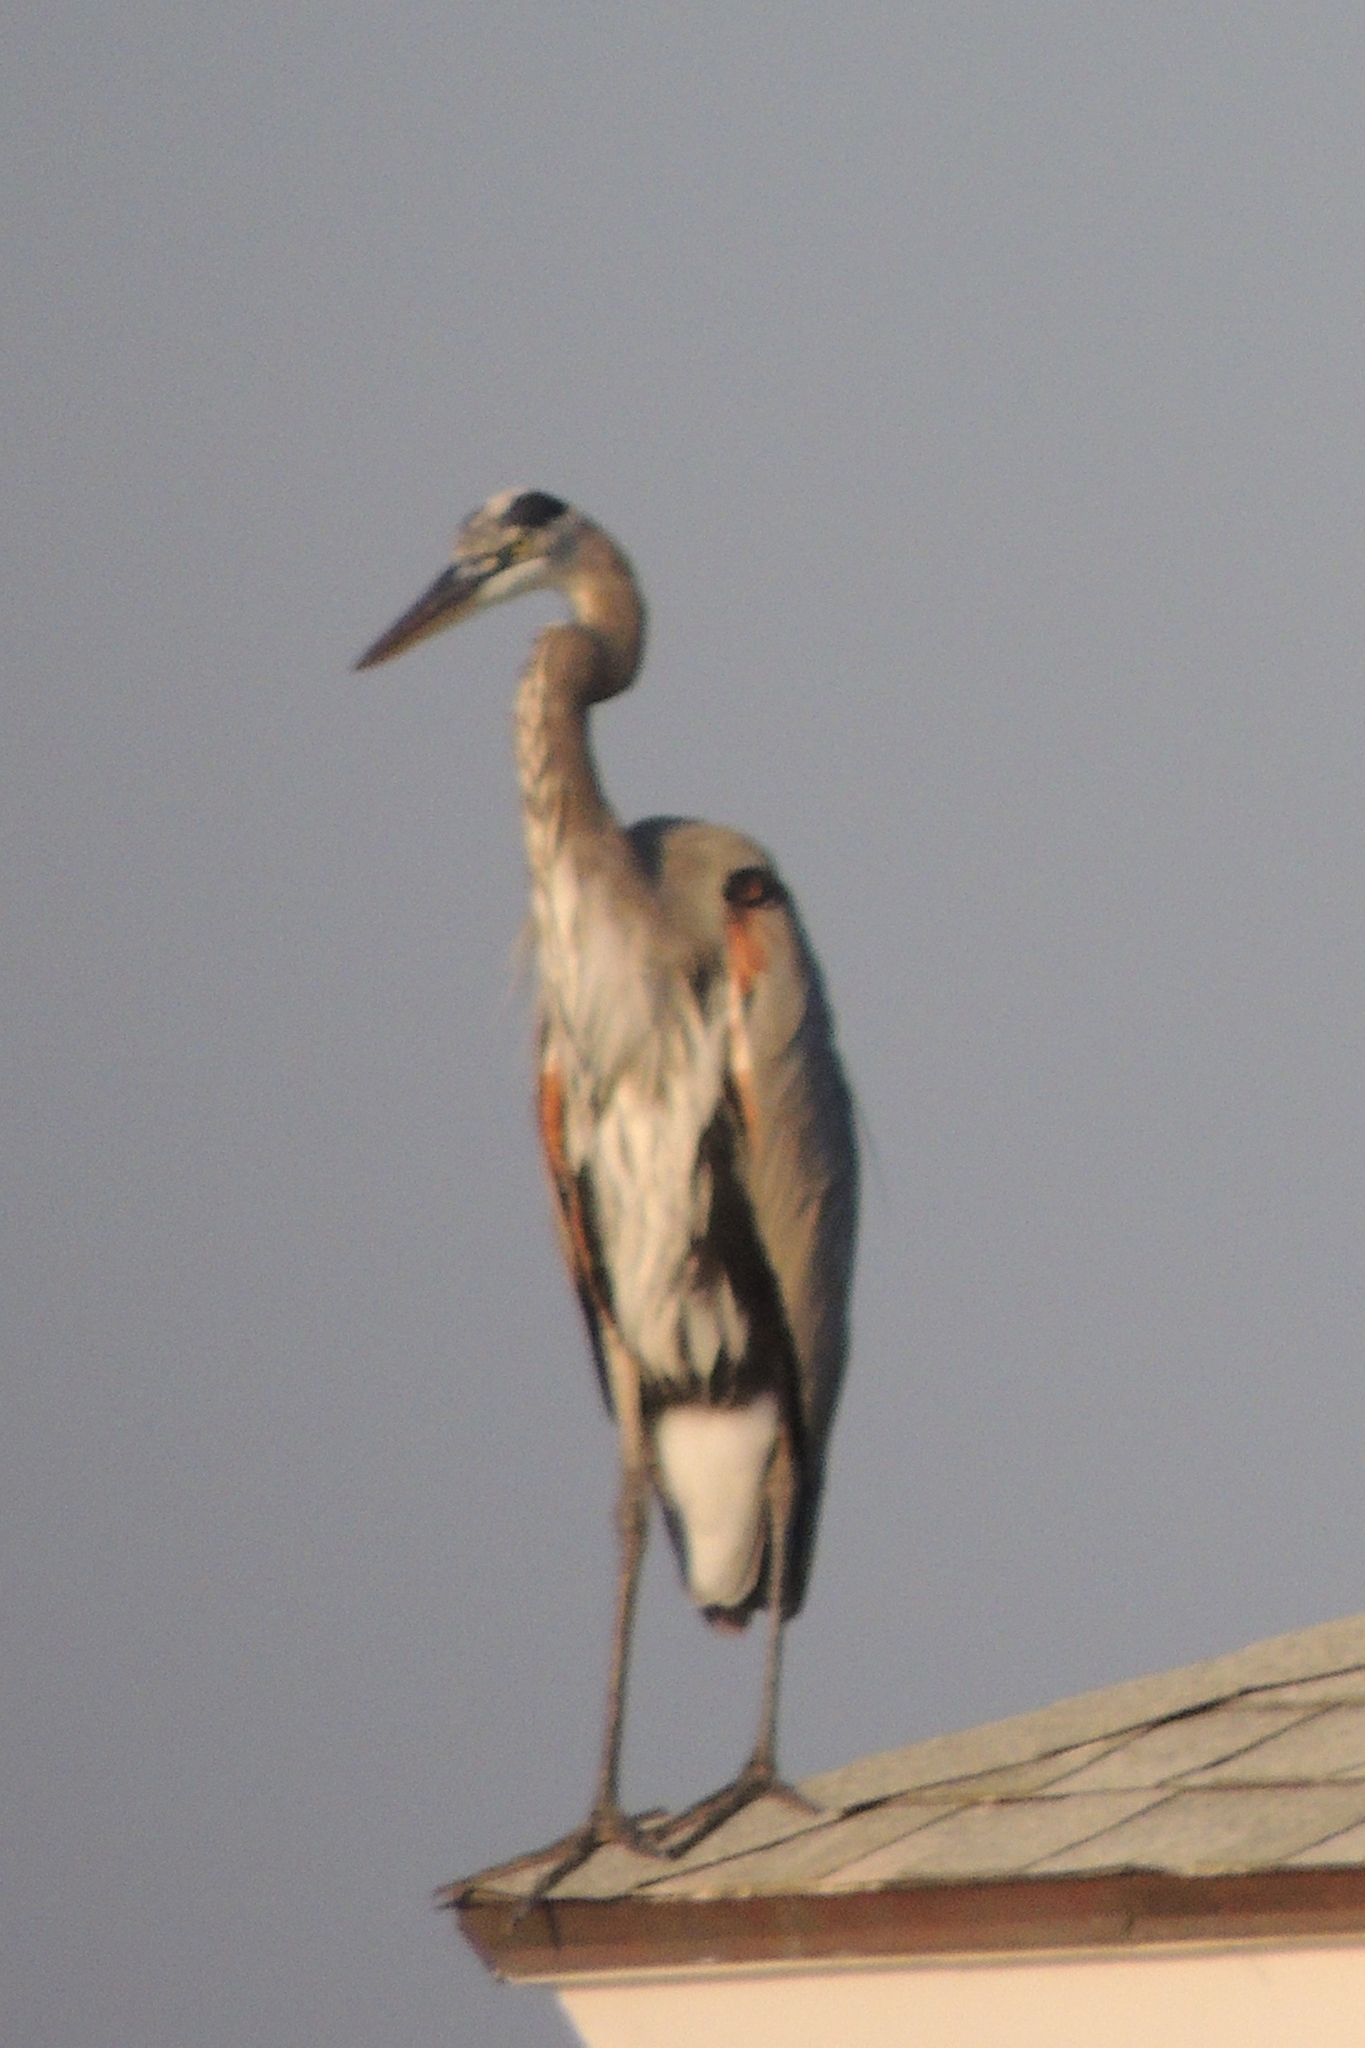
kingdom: Animalia
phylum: Chordata
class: Aves
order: Pelecaniformes
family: Ardeidae
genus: Ardea
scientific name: Ardea herodias
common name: Great blue heron
